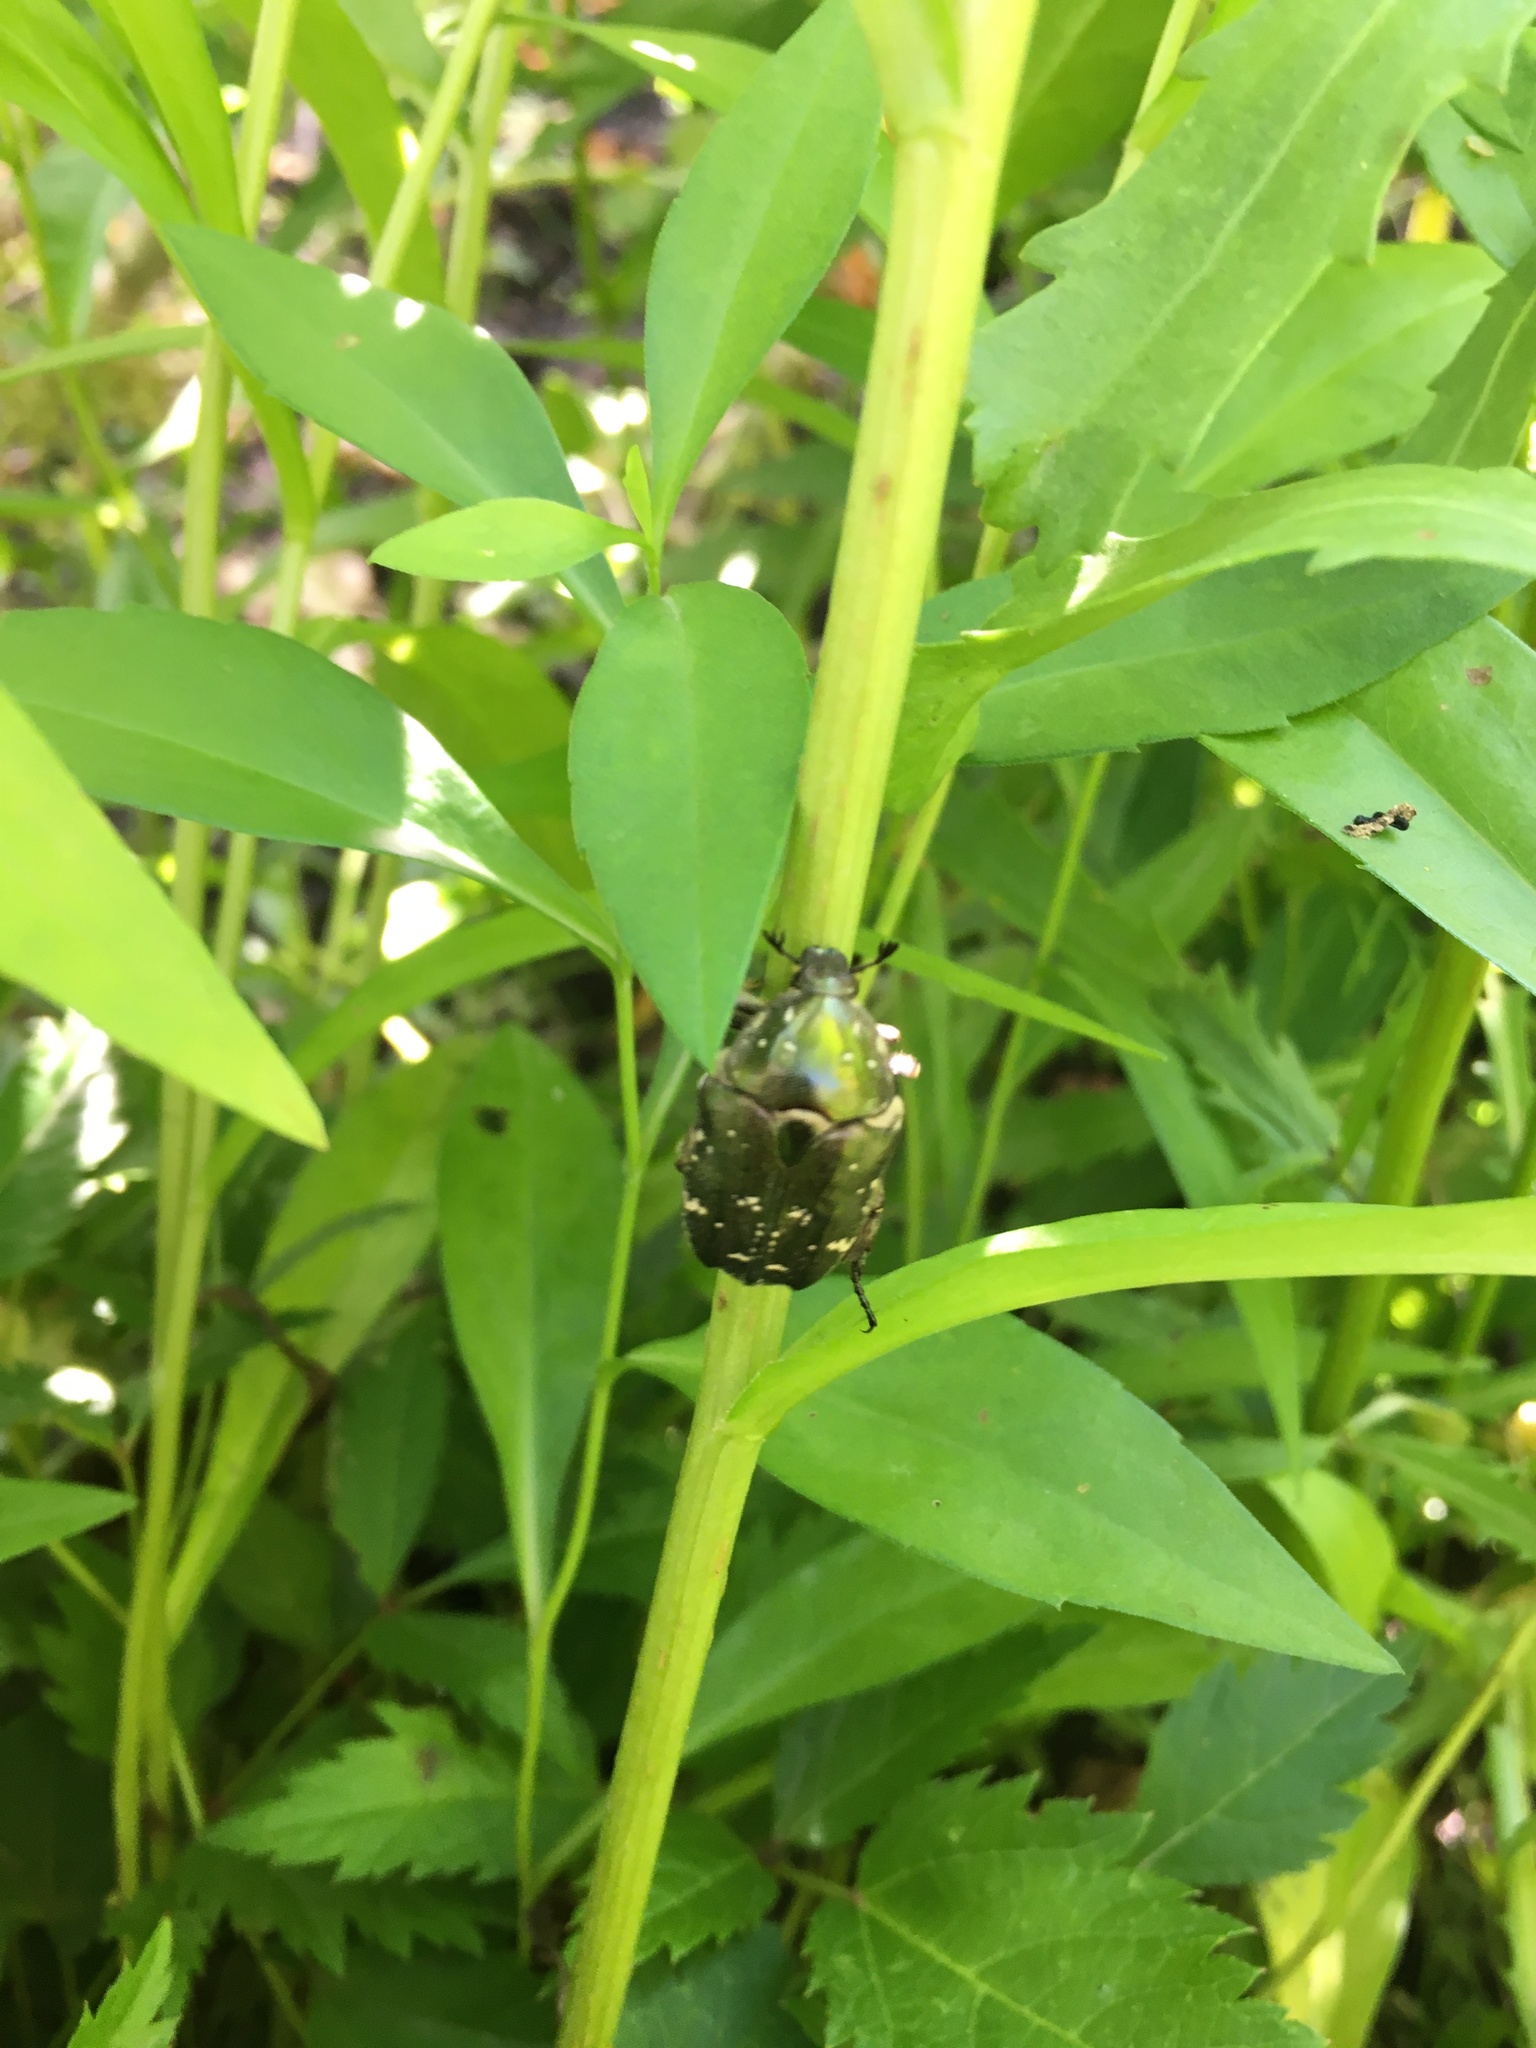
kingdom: Animalia
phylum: Arthropoda
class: Insecta
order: Coleoptera
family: Scarabaeidae
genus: Protaetia
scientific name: Protaetia cuprea
